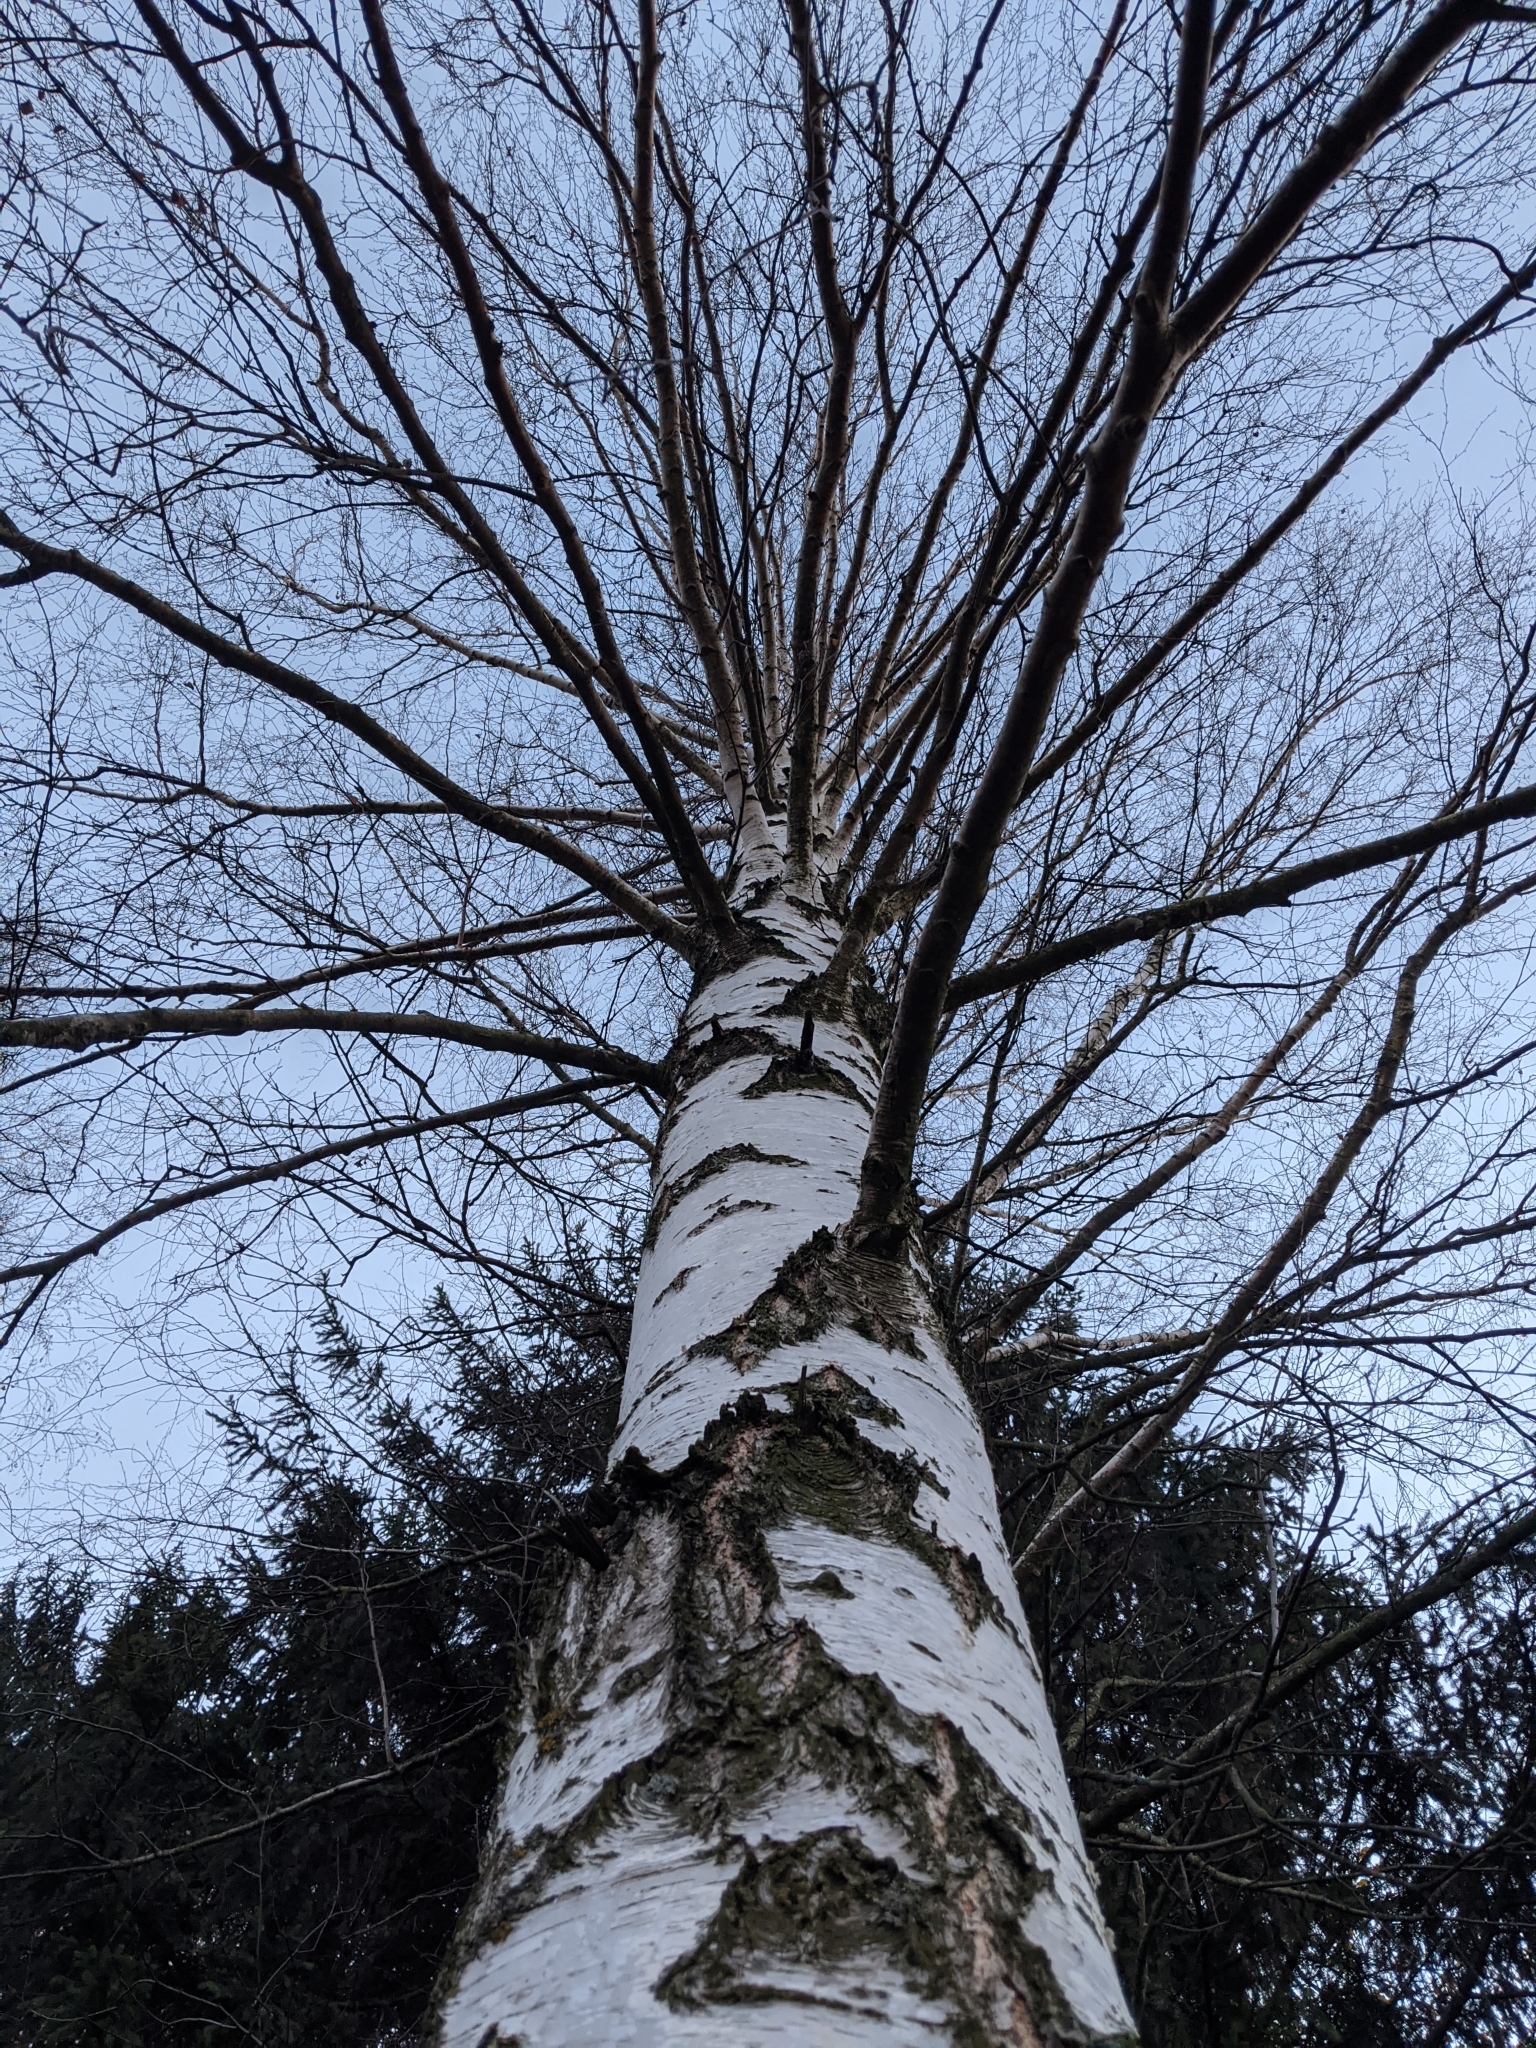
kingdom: Plantae
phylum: Tracheophyta
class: Magnoliopsida
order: Fagales
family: Betulaceae
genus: Betula
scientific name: Betula pendula
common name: Silver birch
